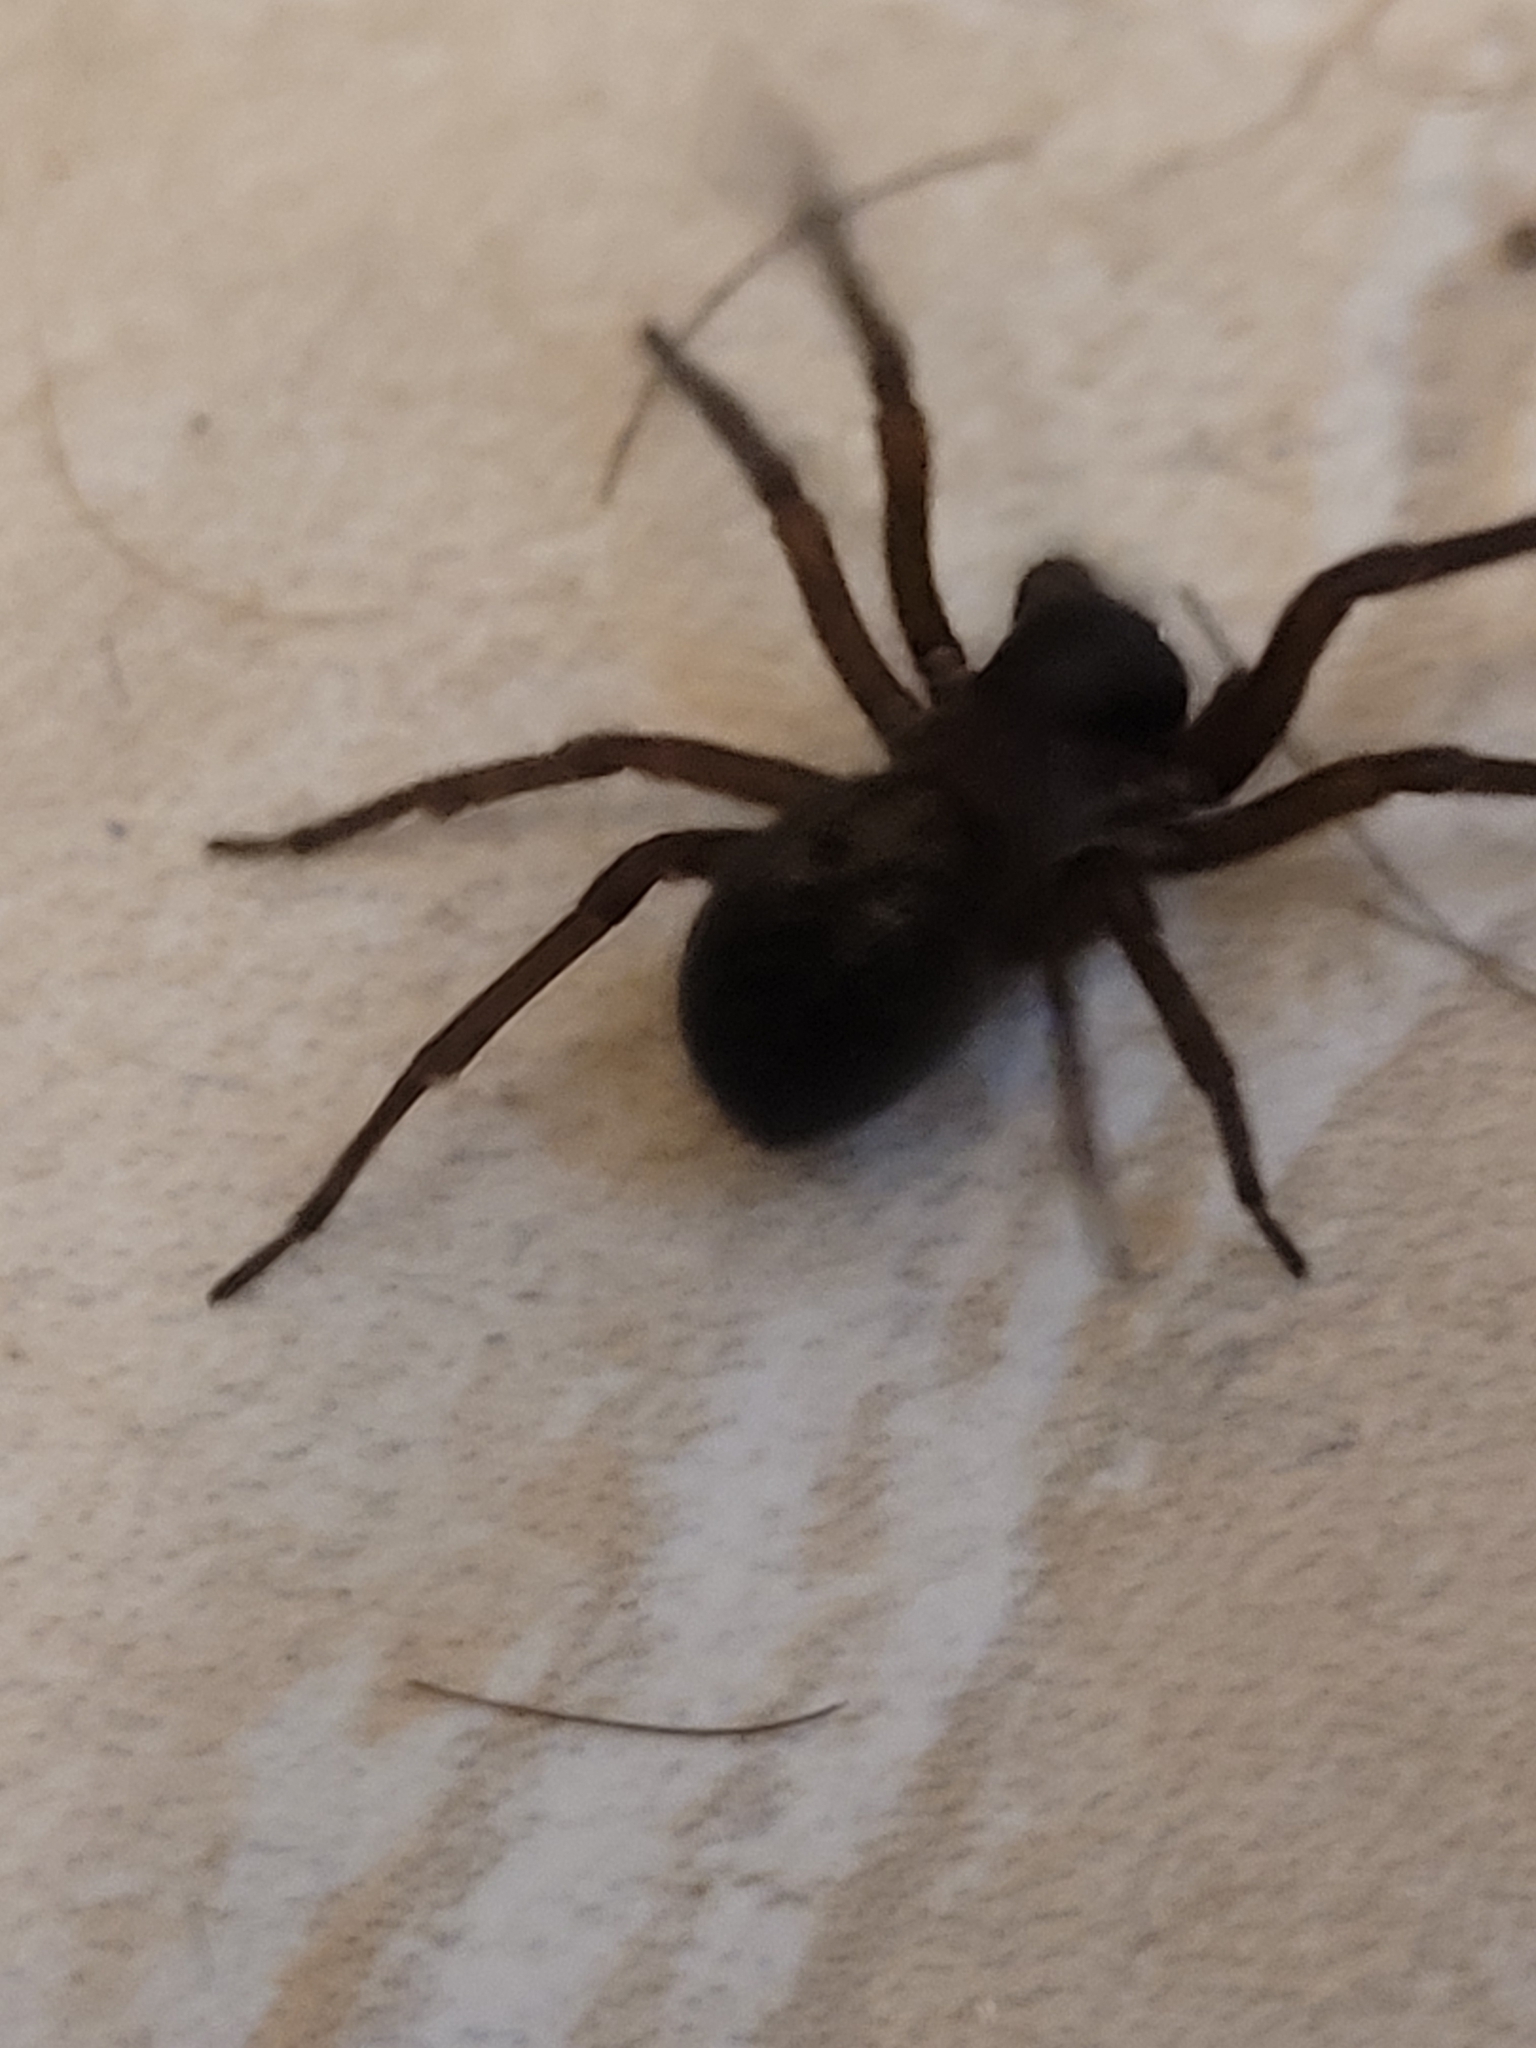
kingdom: Animalia
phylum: Arthropoda
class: Arachnida
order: Araneae
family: Amaurobiidae
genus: Amaurobius
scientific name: Amaurobius ferox
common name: Black laceweaver
